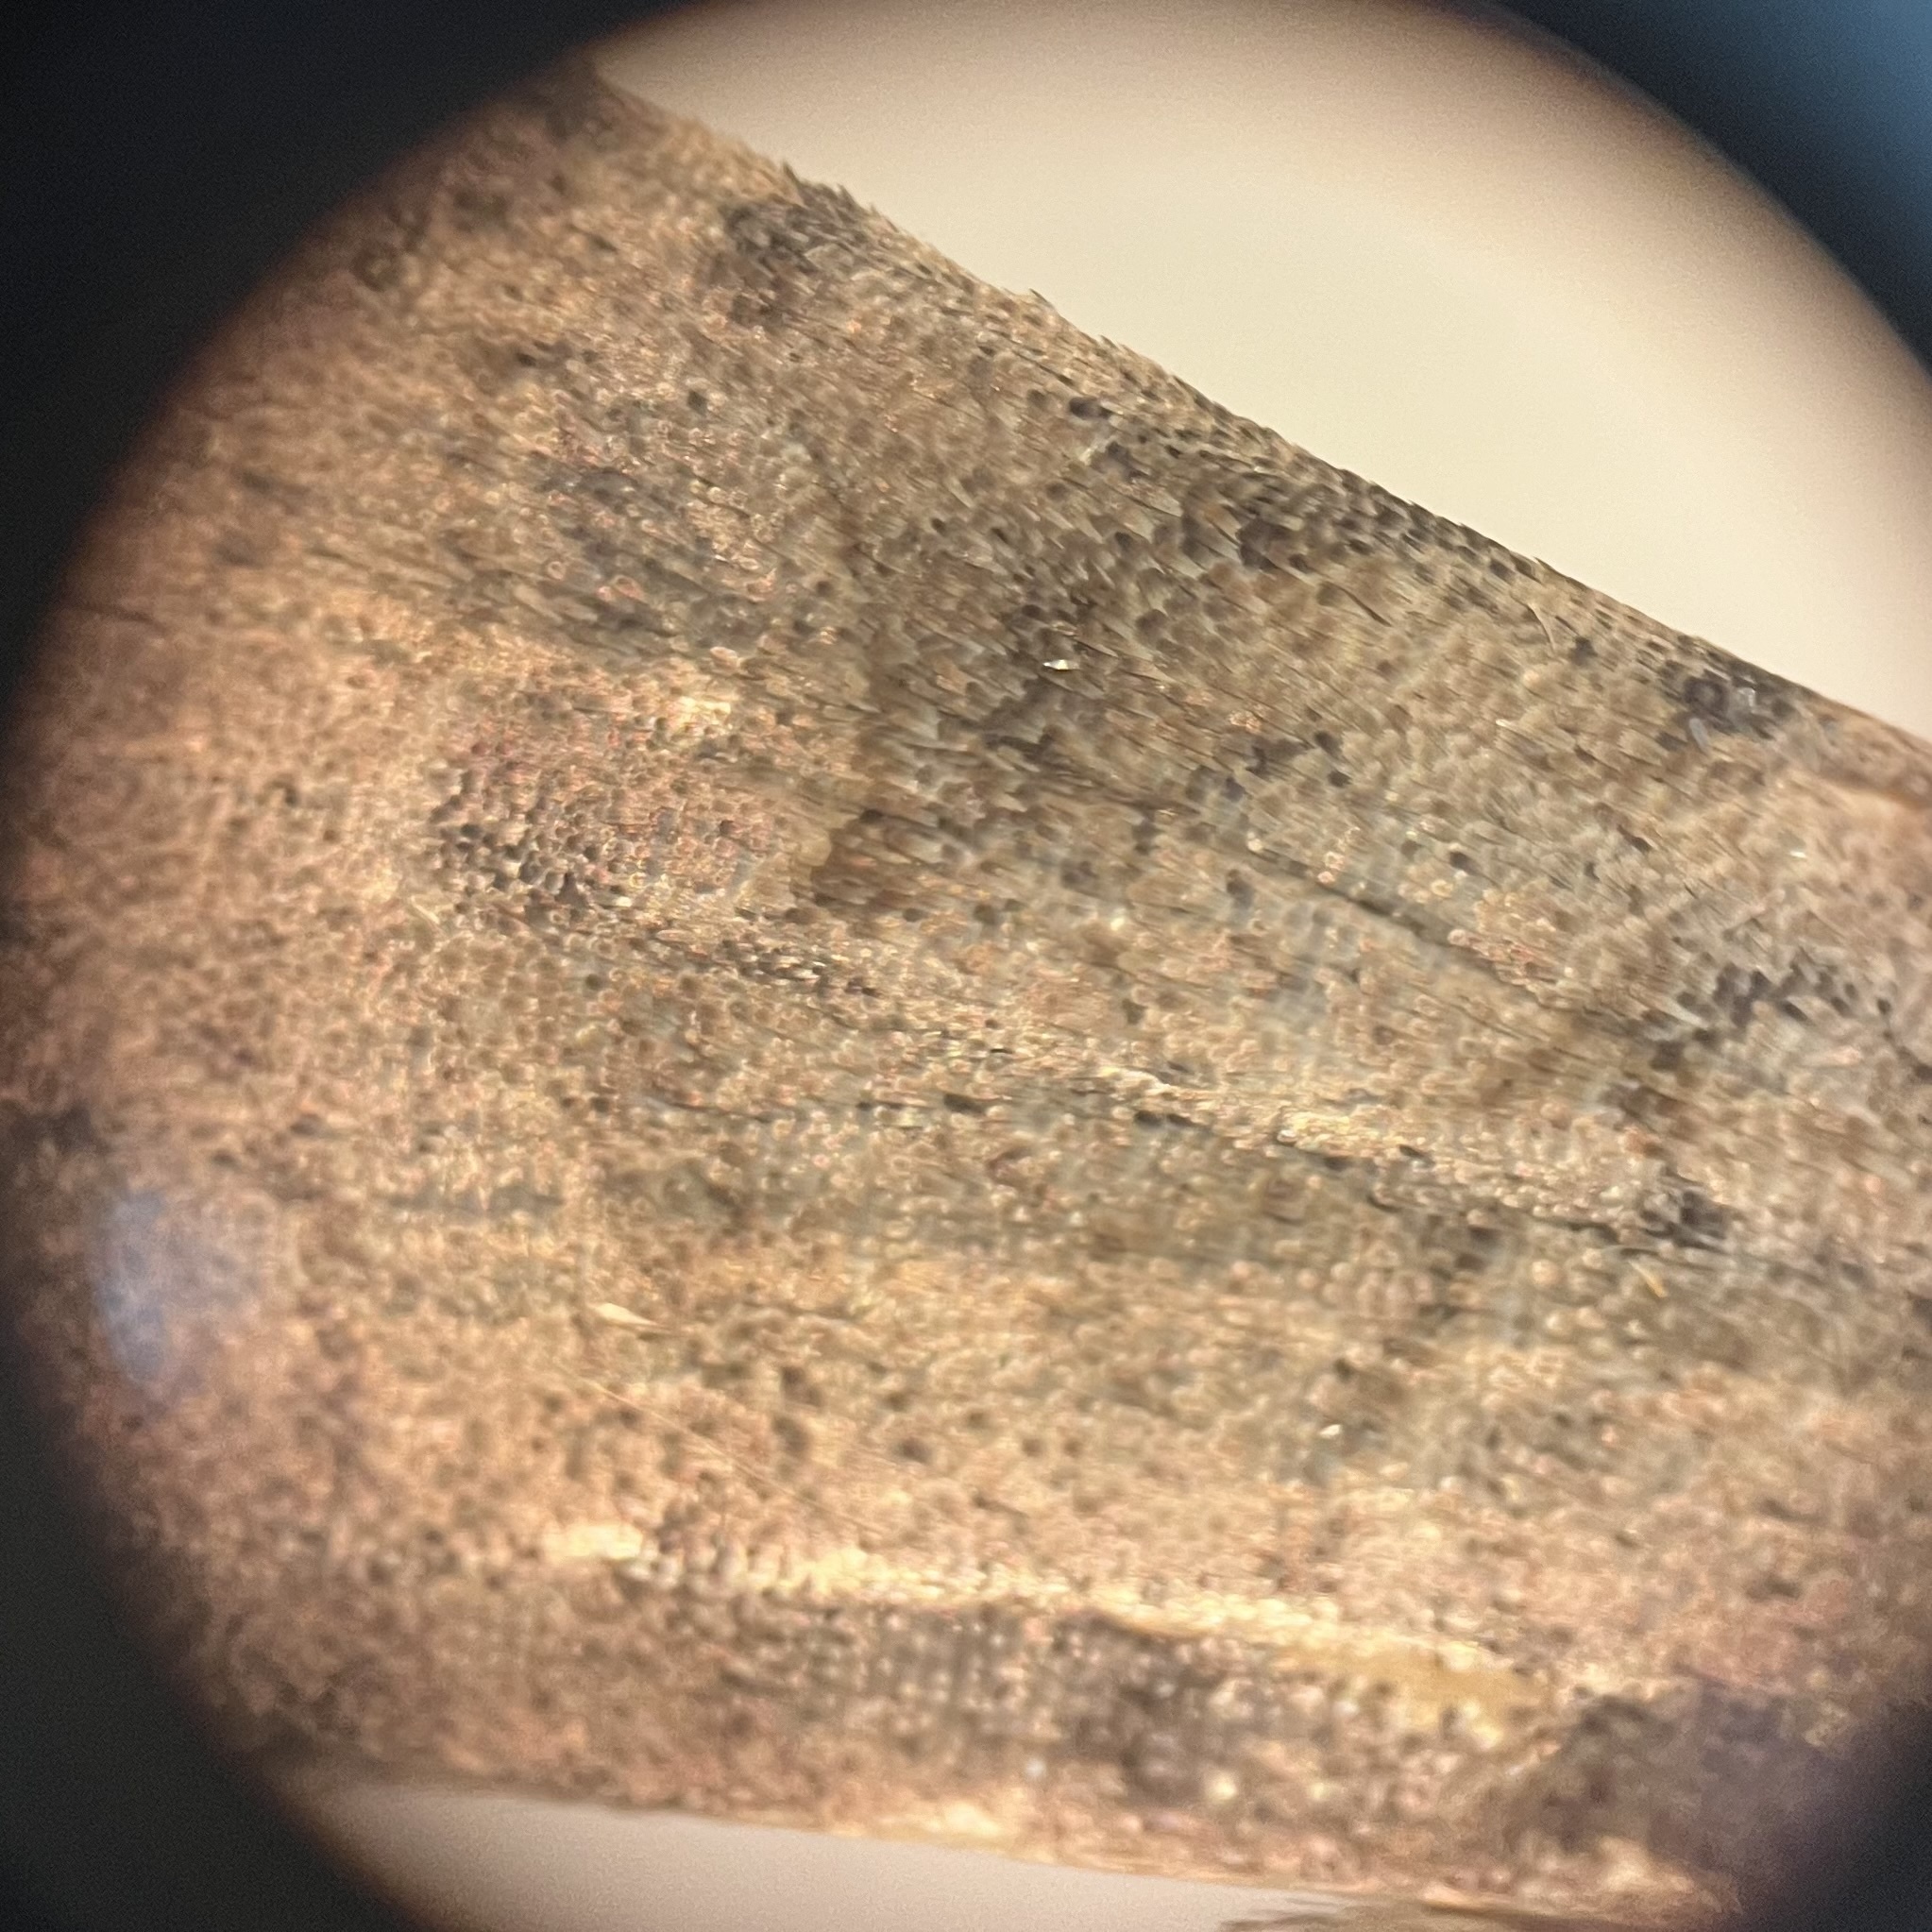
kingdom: Animalia
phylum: Arthropoda
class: Insecta
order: Lepidoptera
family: Noctuidae
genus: Xestia
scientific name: Xestia smithii
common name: Smith's dart
